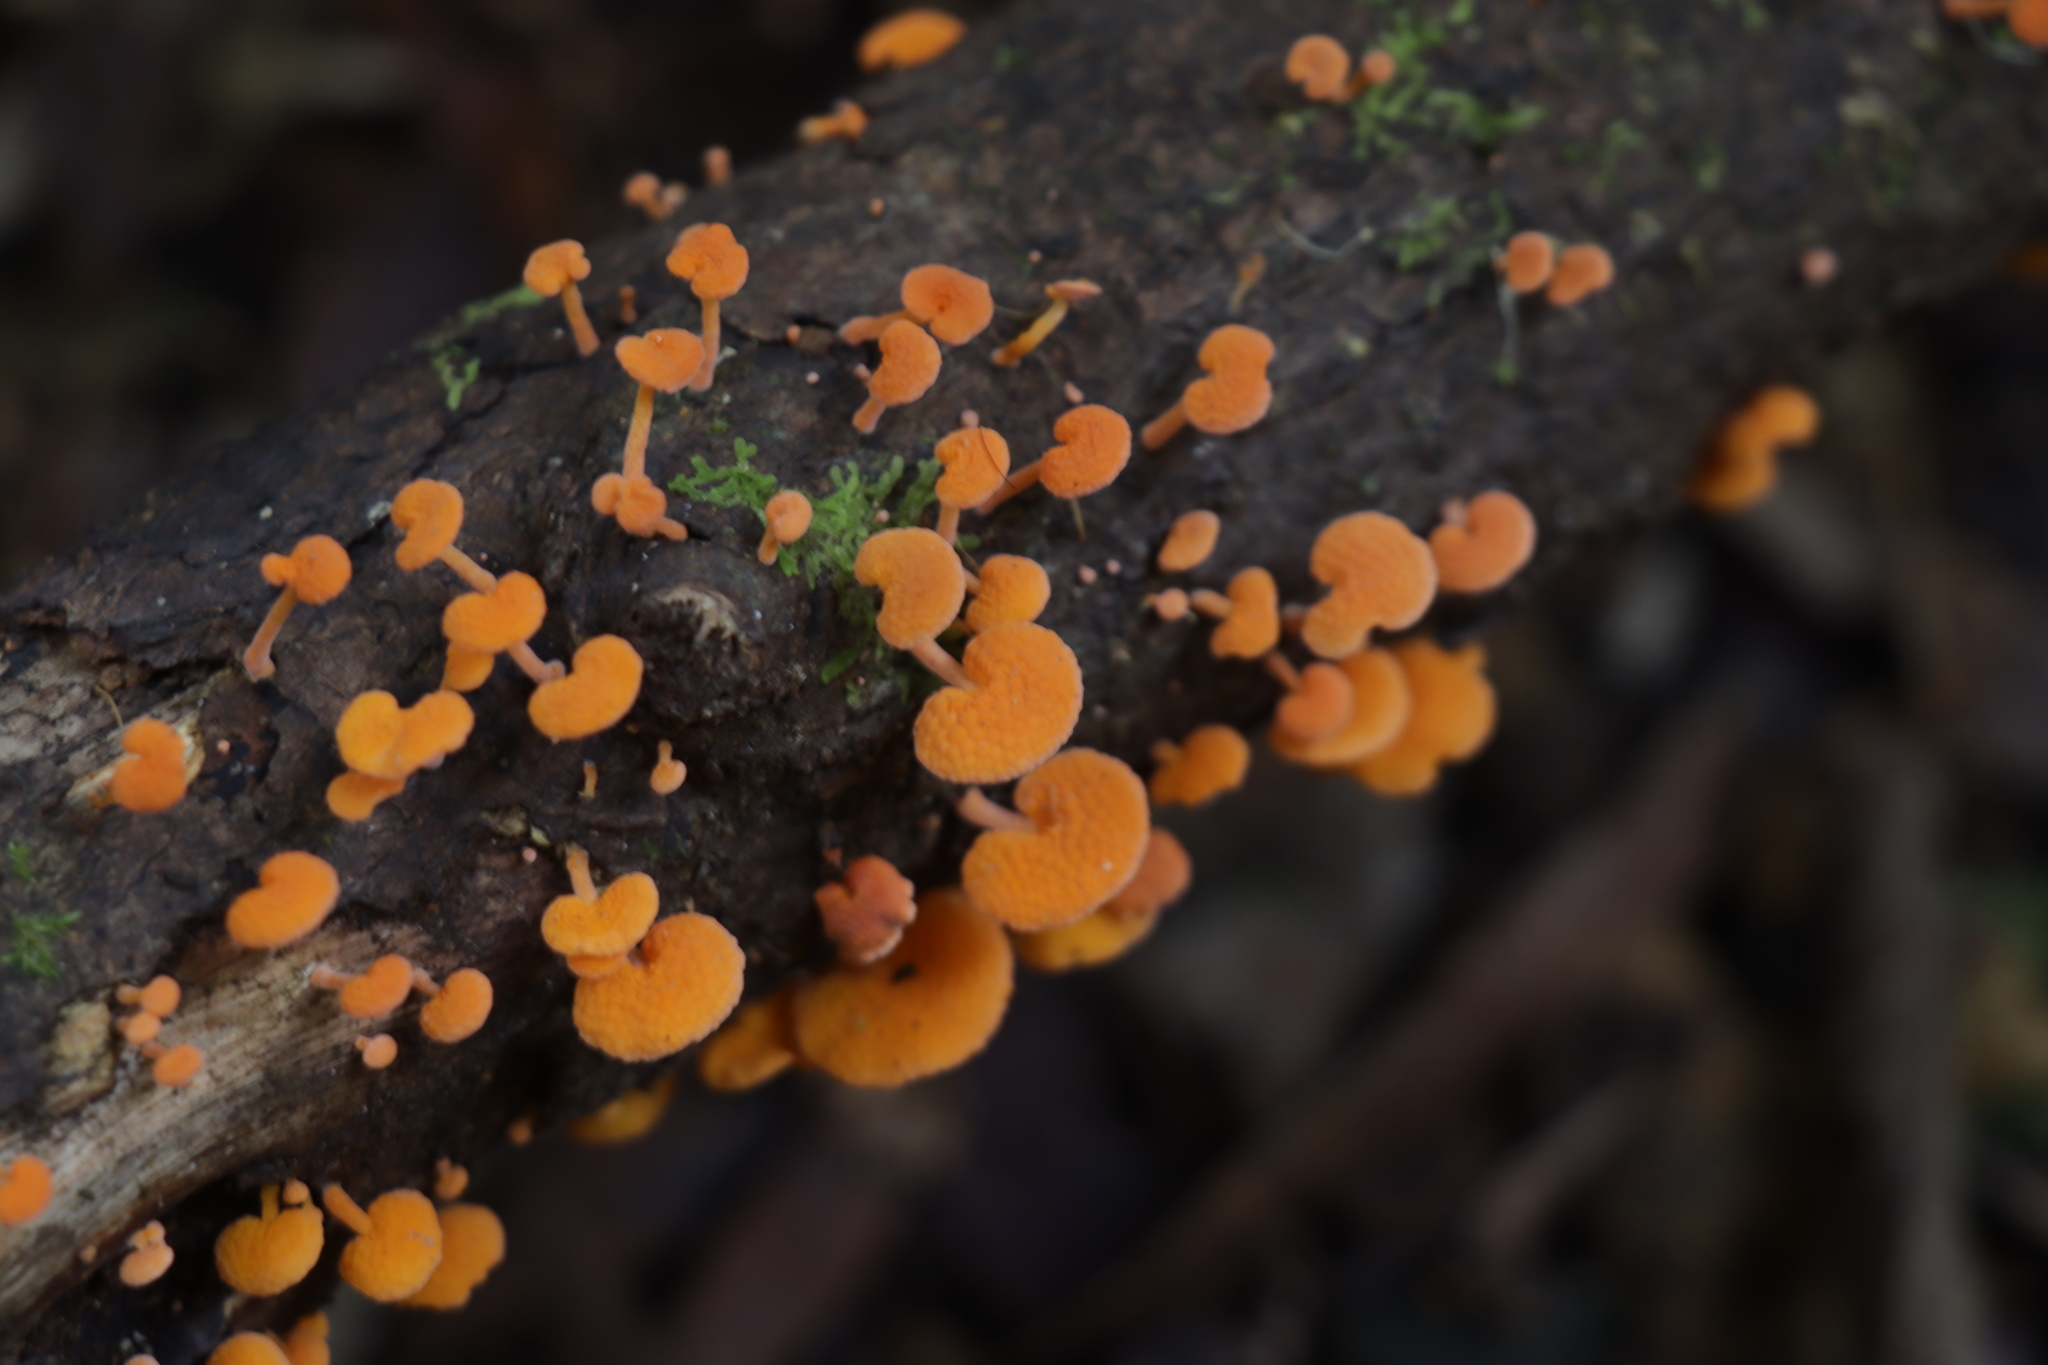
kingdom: Fungi
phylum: Basidiomycota
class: Agaricomycetes
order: Agaricales
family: Mycenaceae
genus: Favolaschia
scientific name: Favolaschia claudopus
